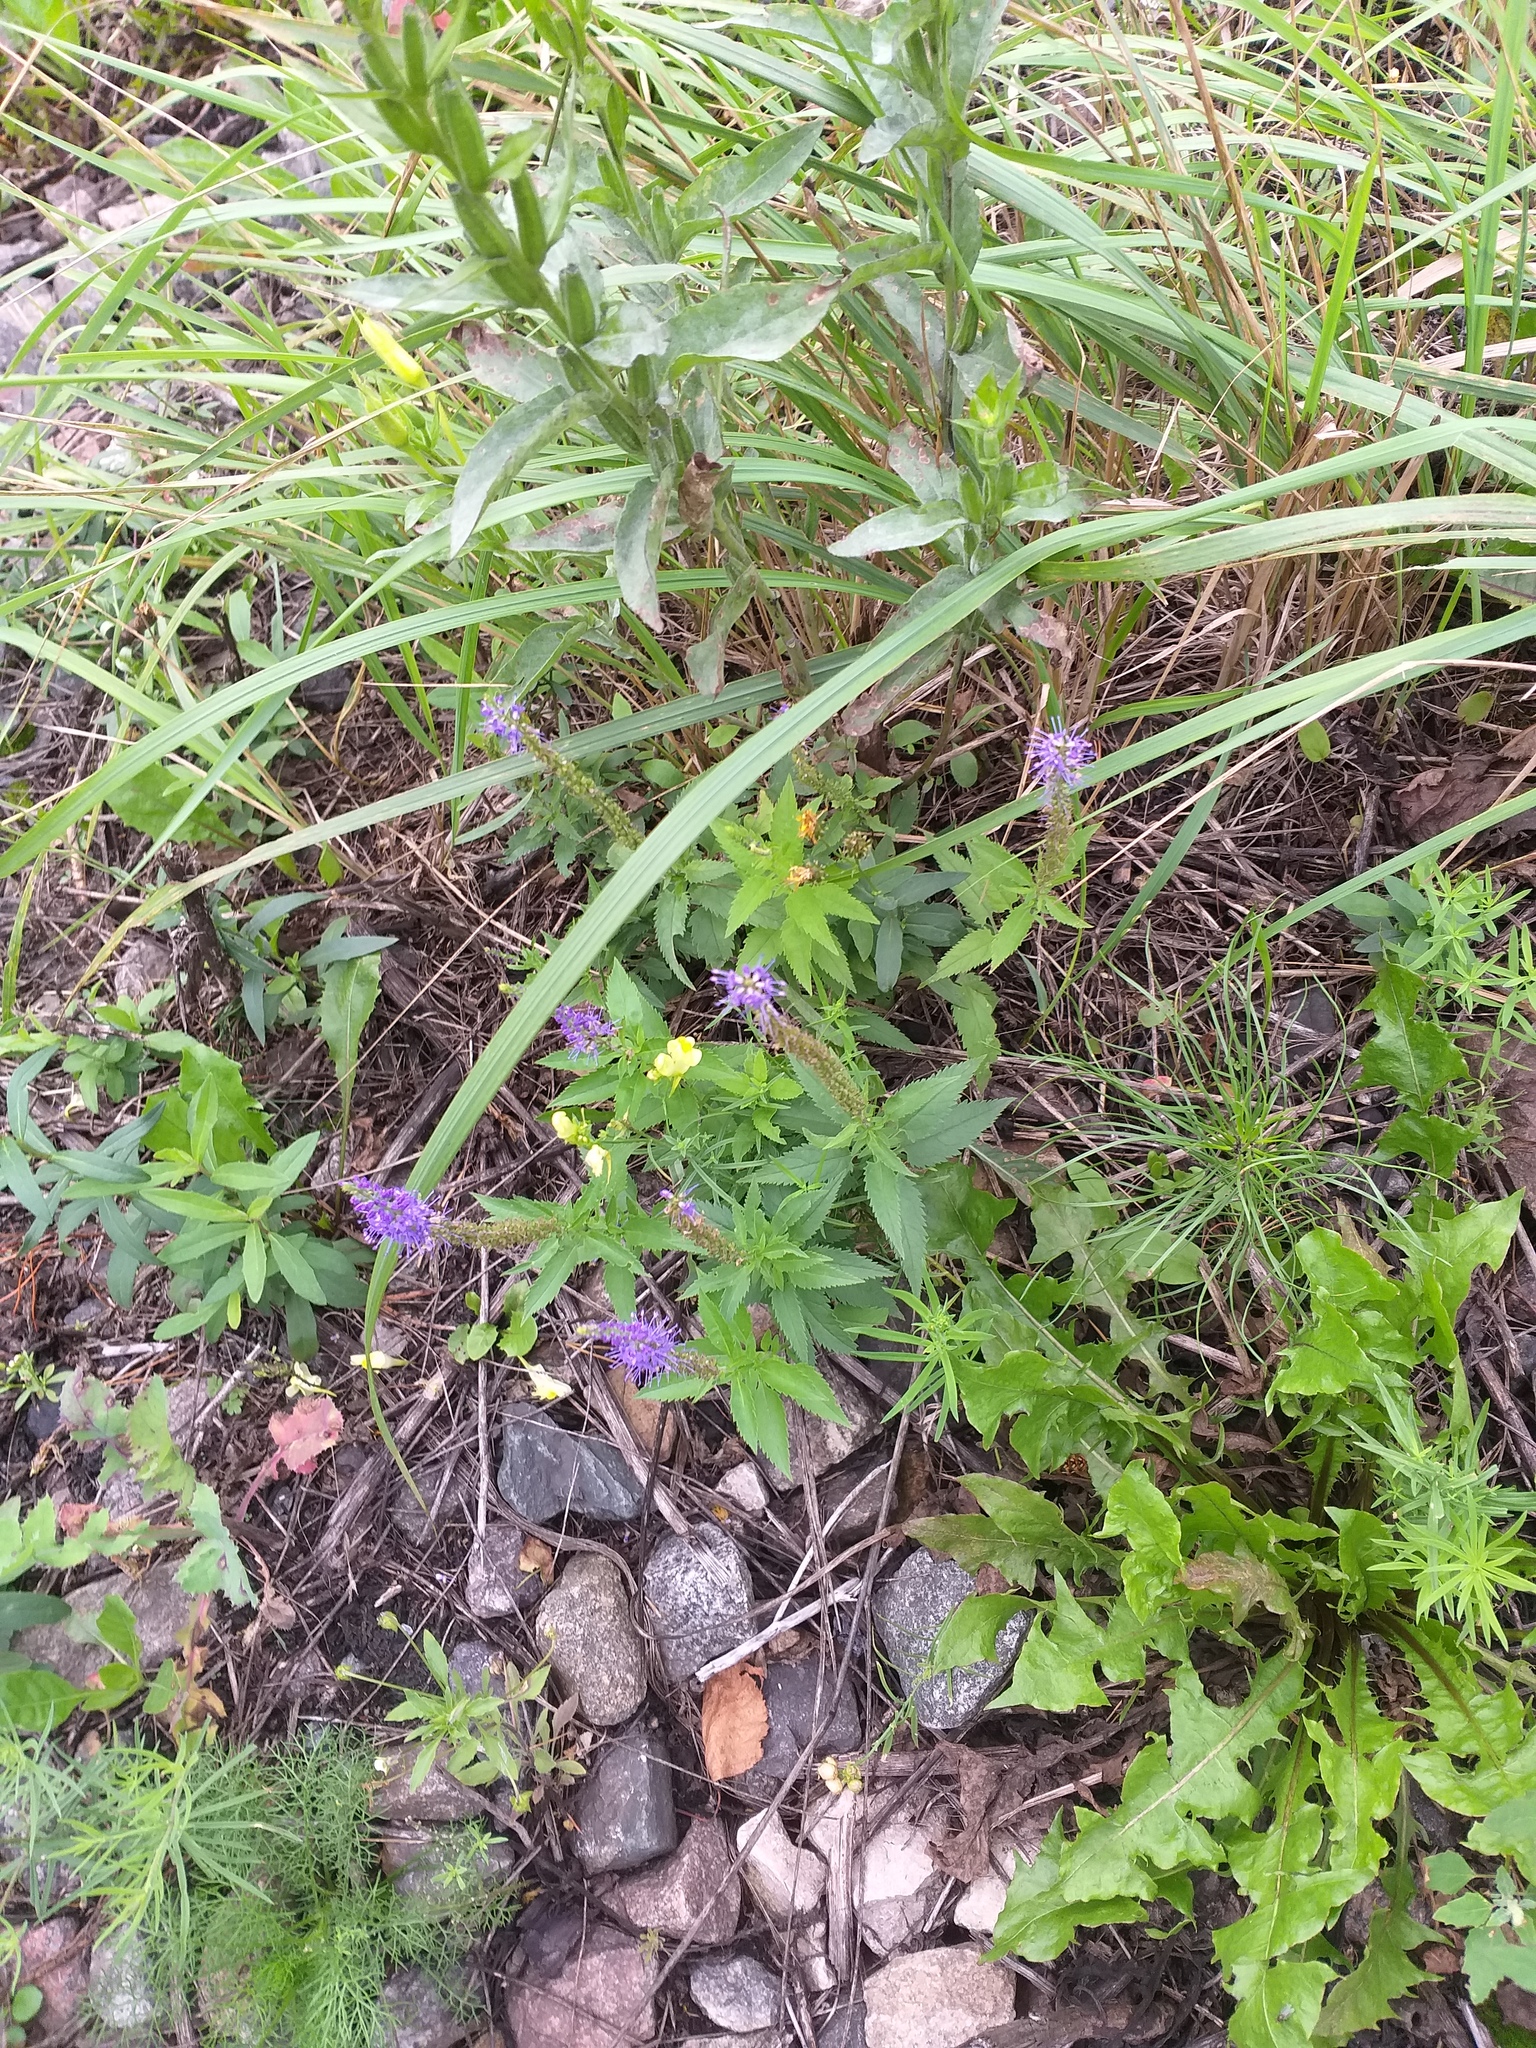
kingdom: Plantae
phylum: Tracheophyta
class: Magnoliopsida
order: Lamiales
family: Plantaginaceae
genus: Veronica
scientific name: Veronica longifolia
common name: Garden speedwell
